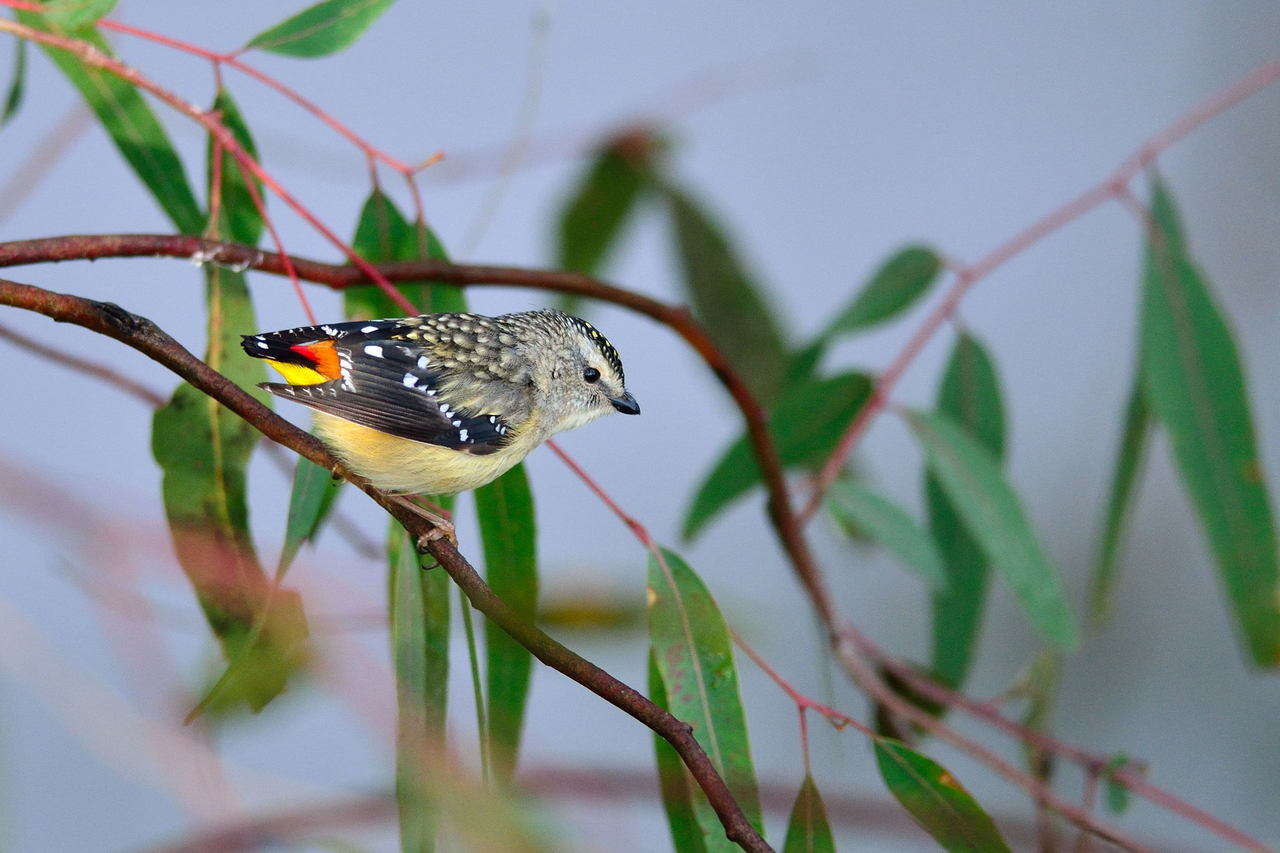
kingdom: Animalia
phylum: Chordata
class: Aves
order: Passeriformes
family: Pardalotidae
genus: Pardalotus
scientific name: Pardalotus punctatus
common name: Spotted pardalote
